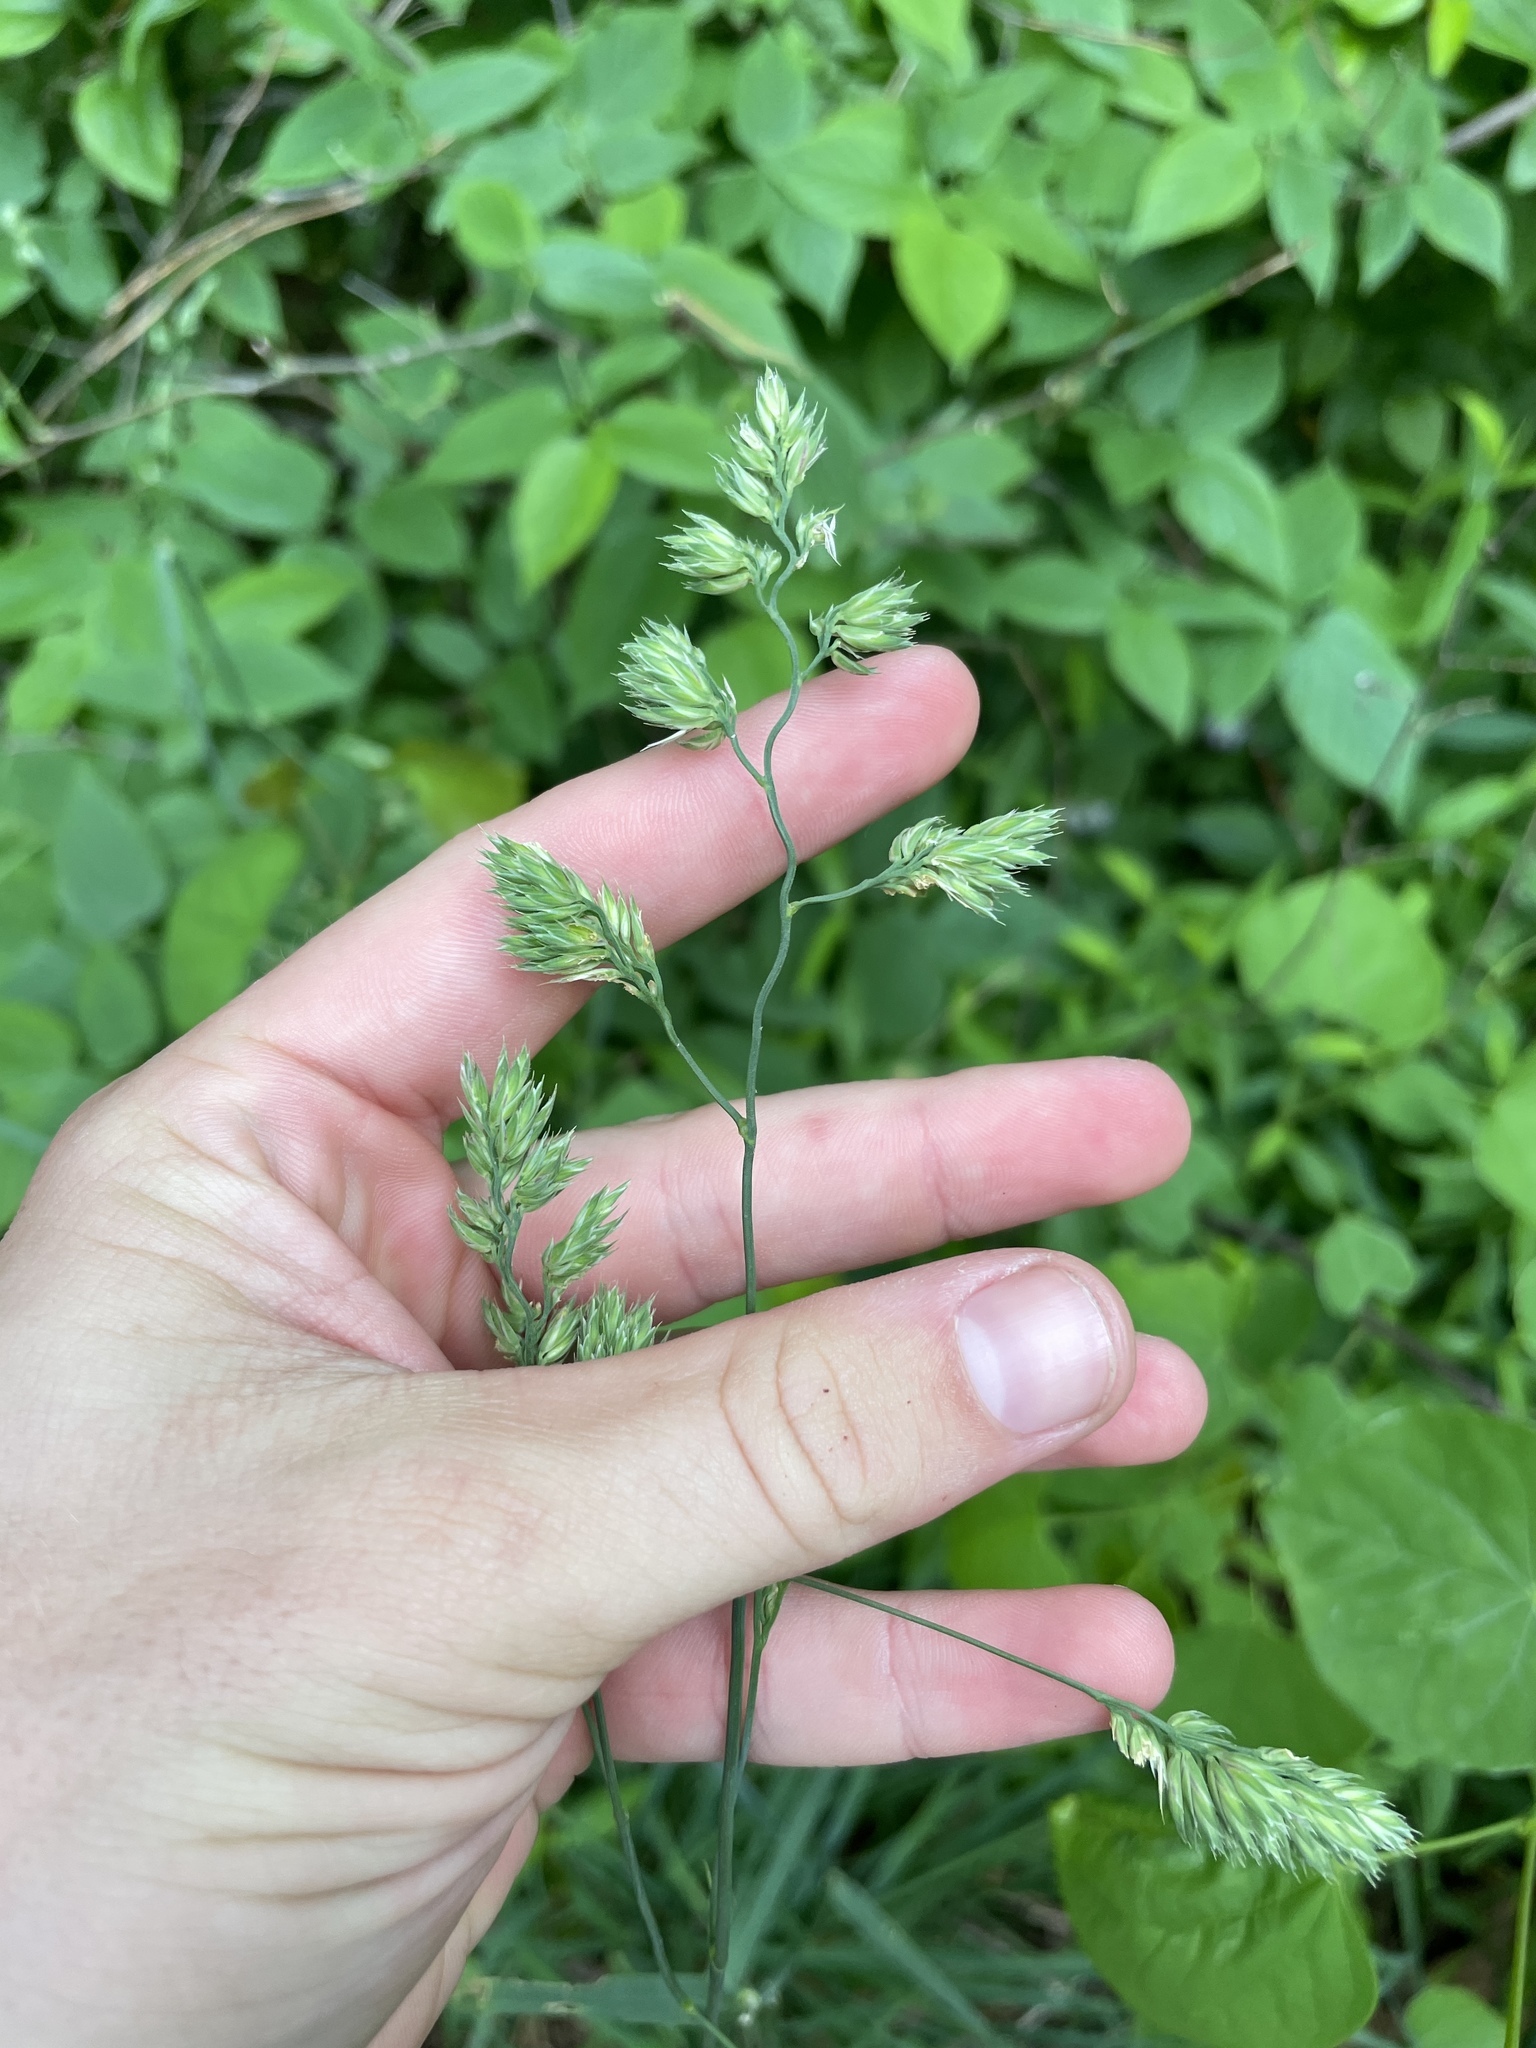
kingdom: Plantae
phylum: Tracheophyta
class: Liliopsida
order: Poales
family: Poaceae
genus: Dactylis
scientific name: Dactylis glomerata
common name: Orchardgrass
